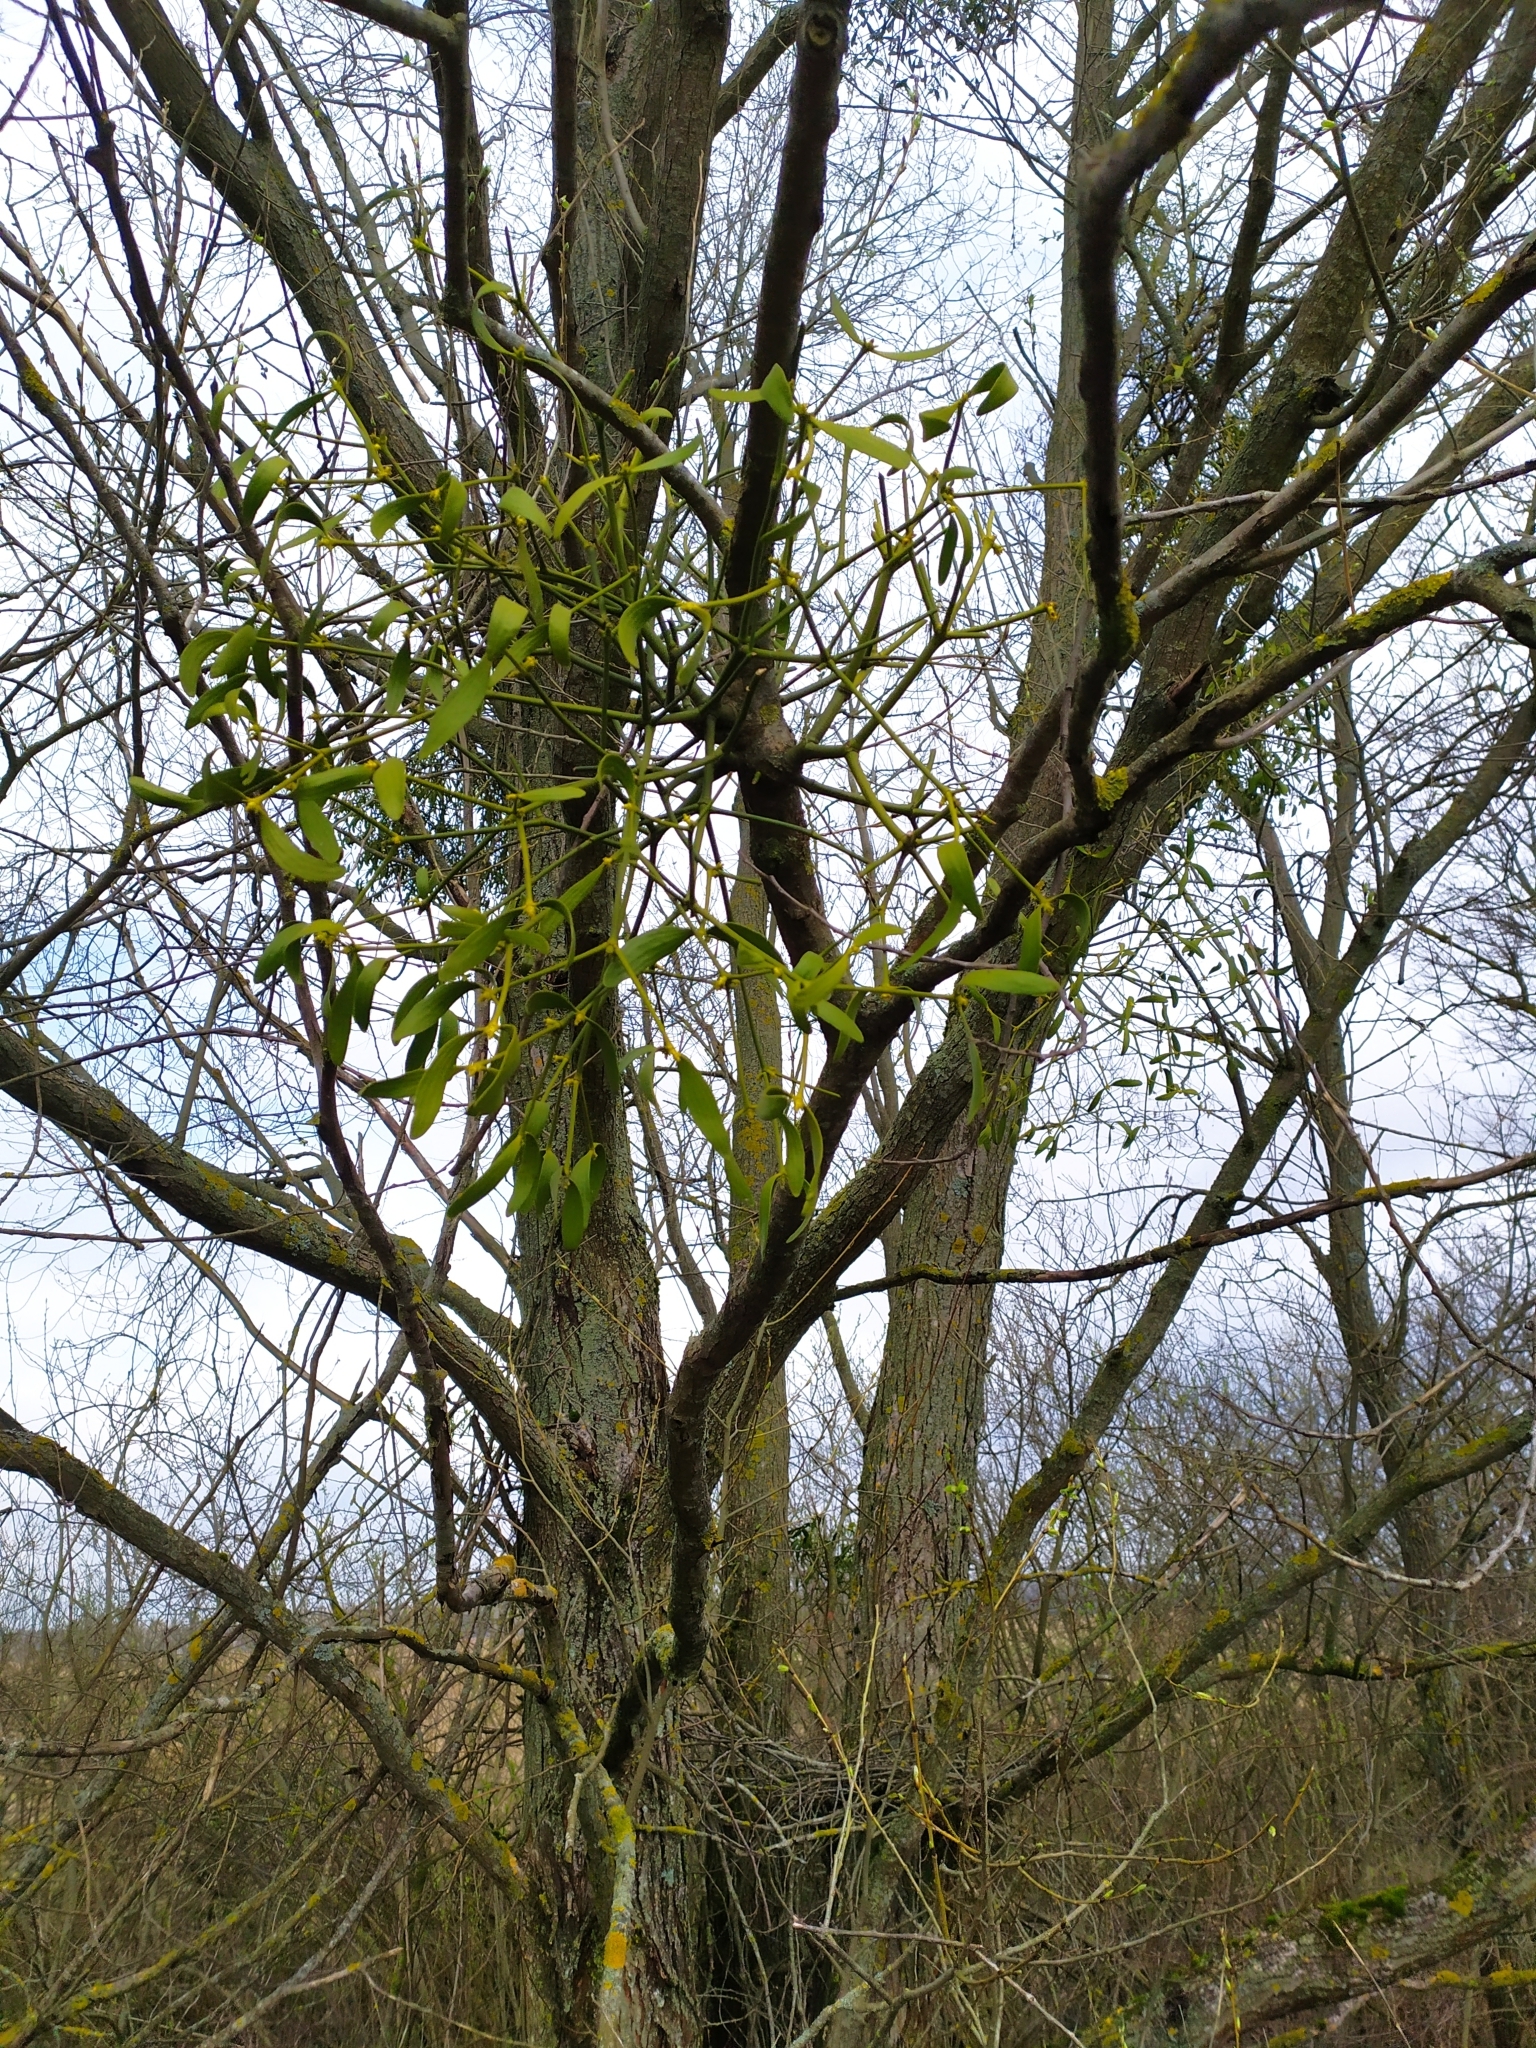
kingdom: Plantae
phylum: Tracheophyta
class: Magnoliopsida
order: Santalales
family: Viscaceae
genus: Viscum
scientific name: Viscum album
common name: Mistletoe
